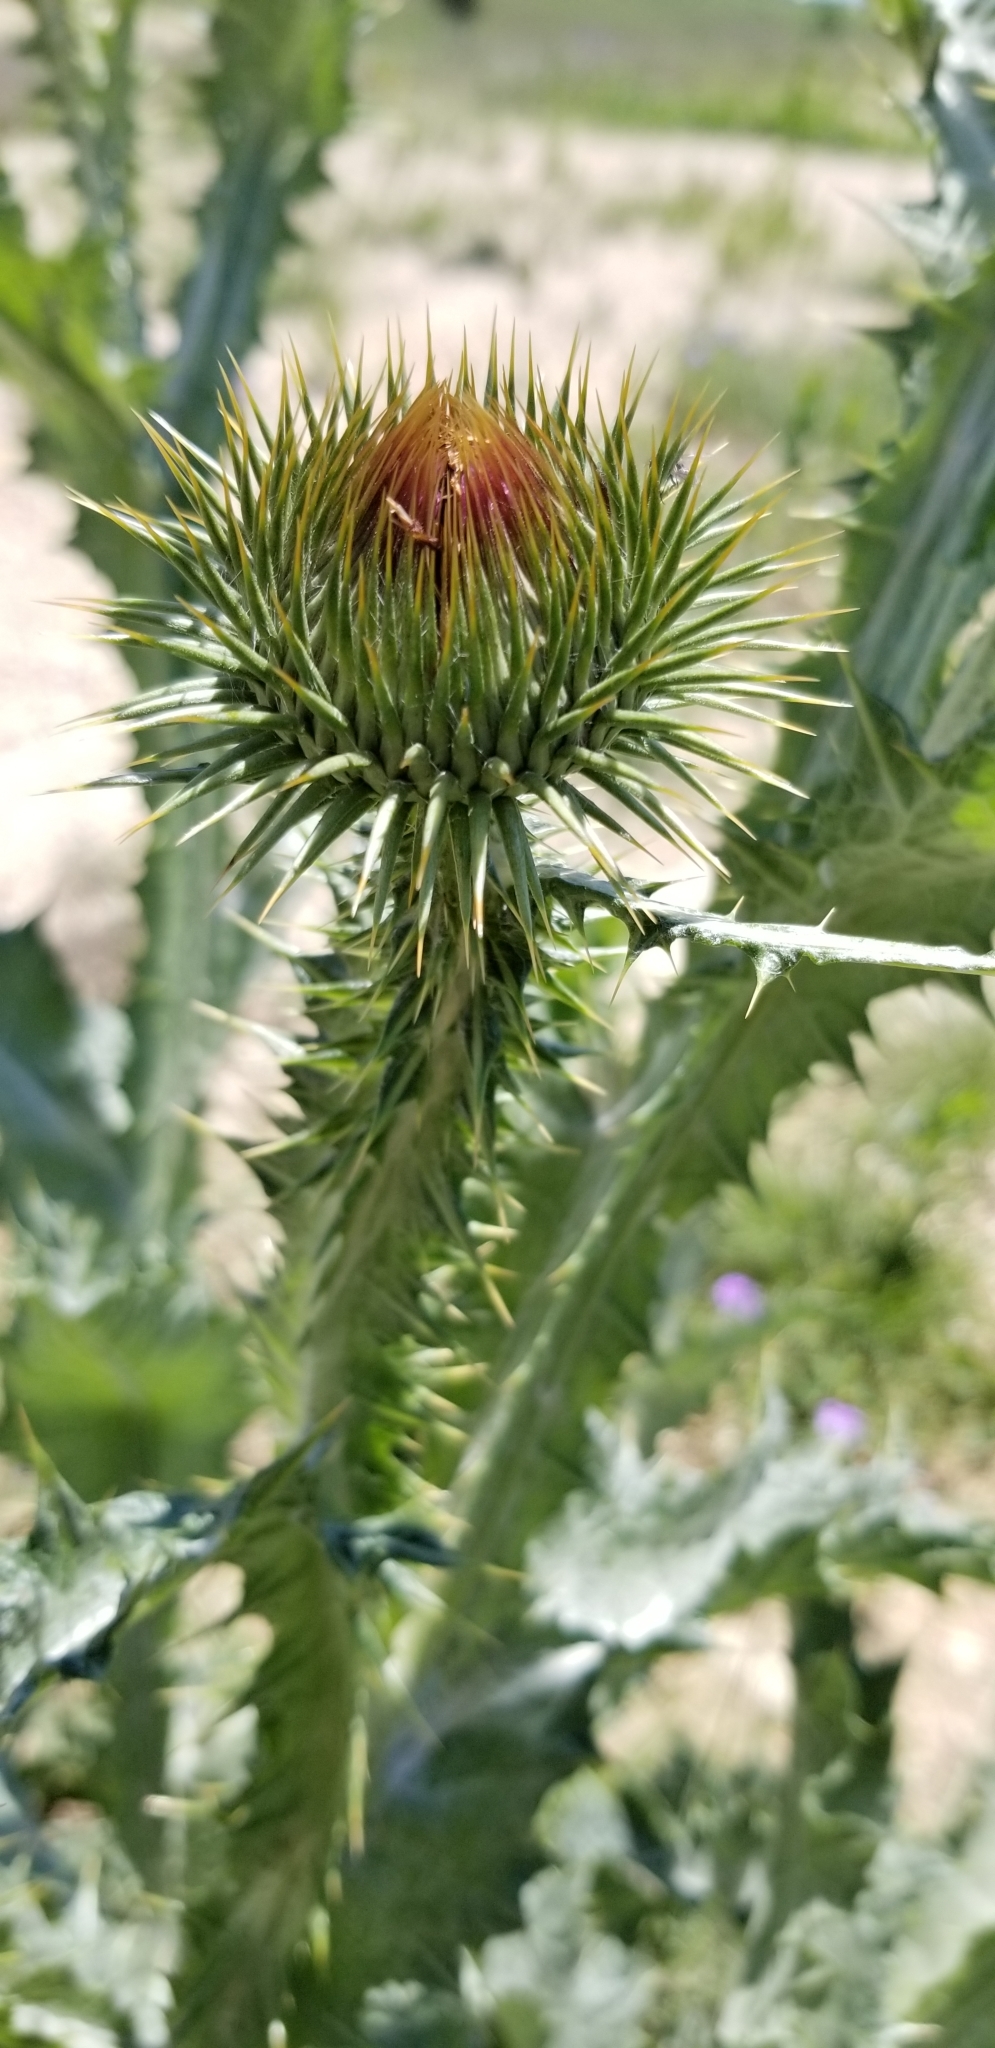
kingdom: Plantae
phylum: Tracheophyta
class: Magnoliopsida
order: Asterales
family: Asteraceae
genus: Onopordum
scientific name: Onopordum acanthium
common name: Scotch thistle
